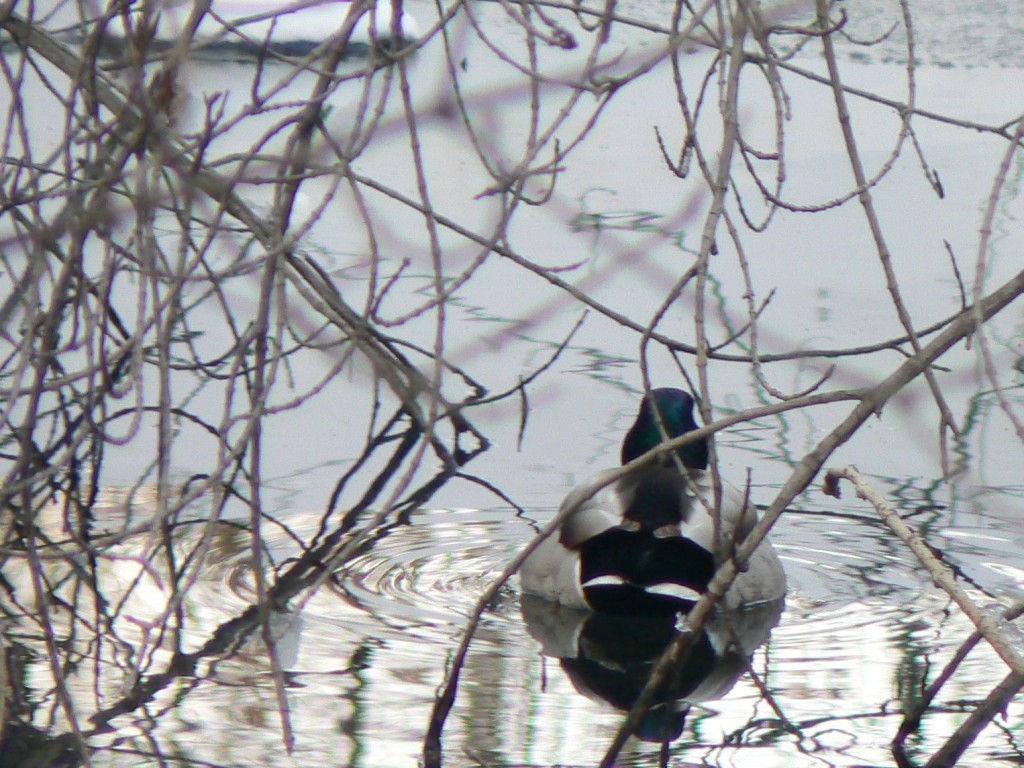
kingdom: Animalia
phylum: Chordata
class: Aves
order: Anseriformes
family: Anatidae
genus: Anas
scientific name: Anas platyrhynchos
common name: Mallard
